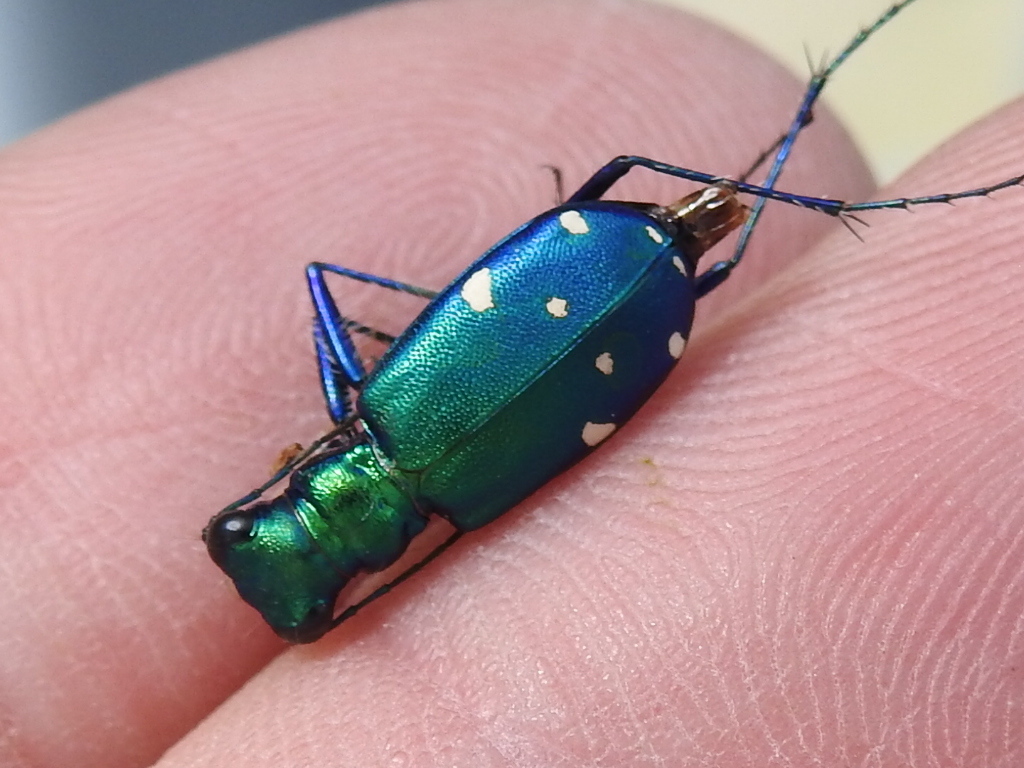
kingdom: Animalia
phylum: Arthropoda
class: Insecta
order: Coleoptera
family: Carabidae
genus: Cicindela
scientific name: Cicindela sexguttata
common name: Six-spotted tiger beetle
